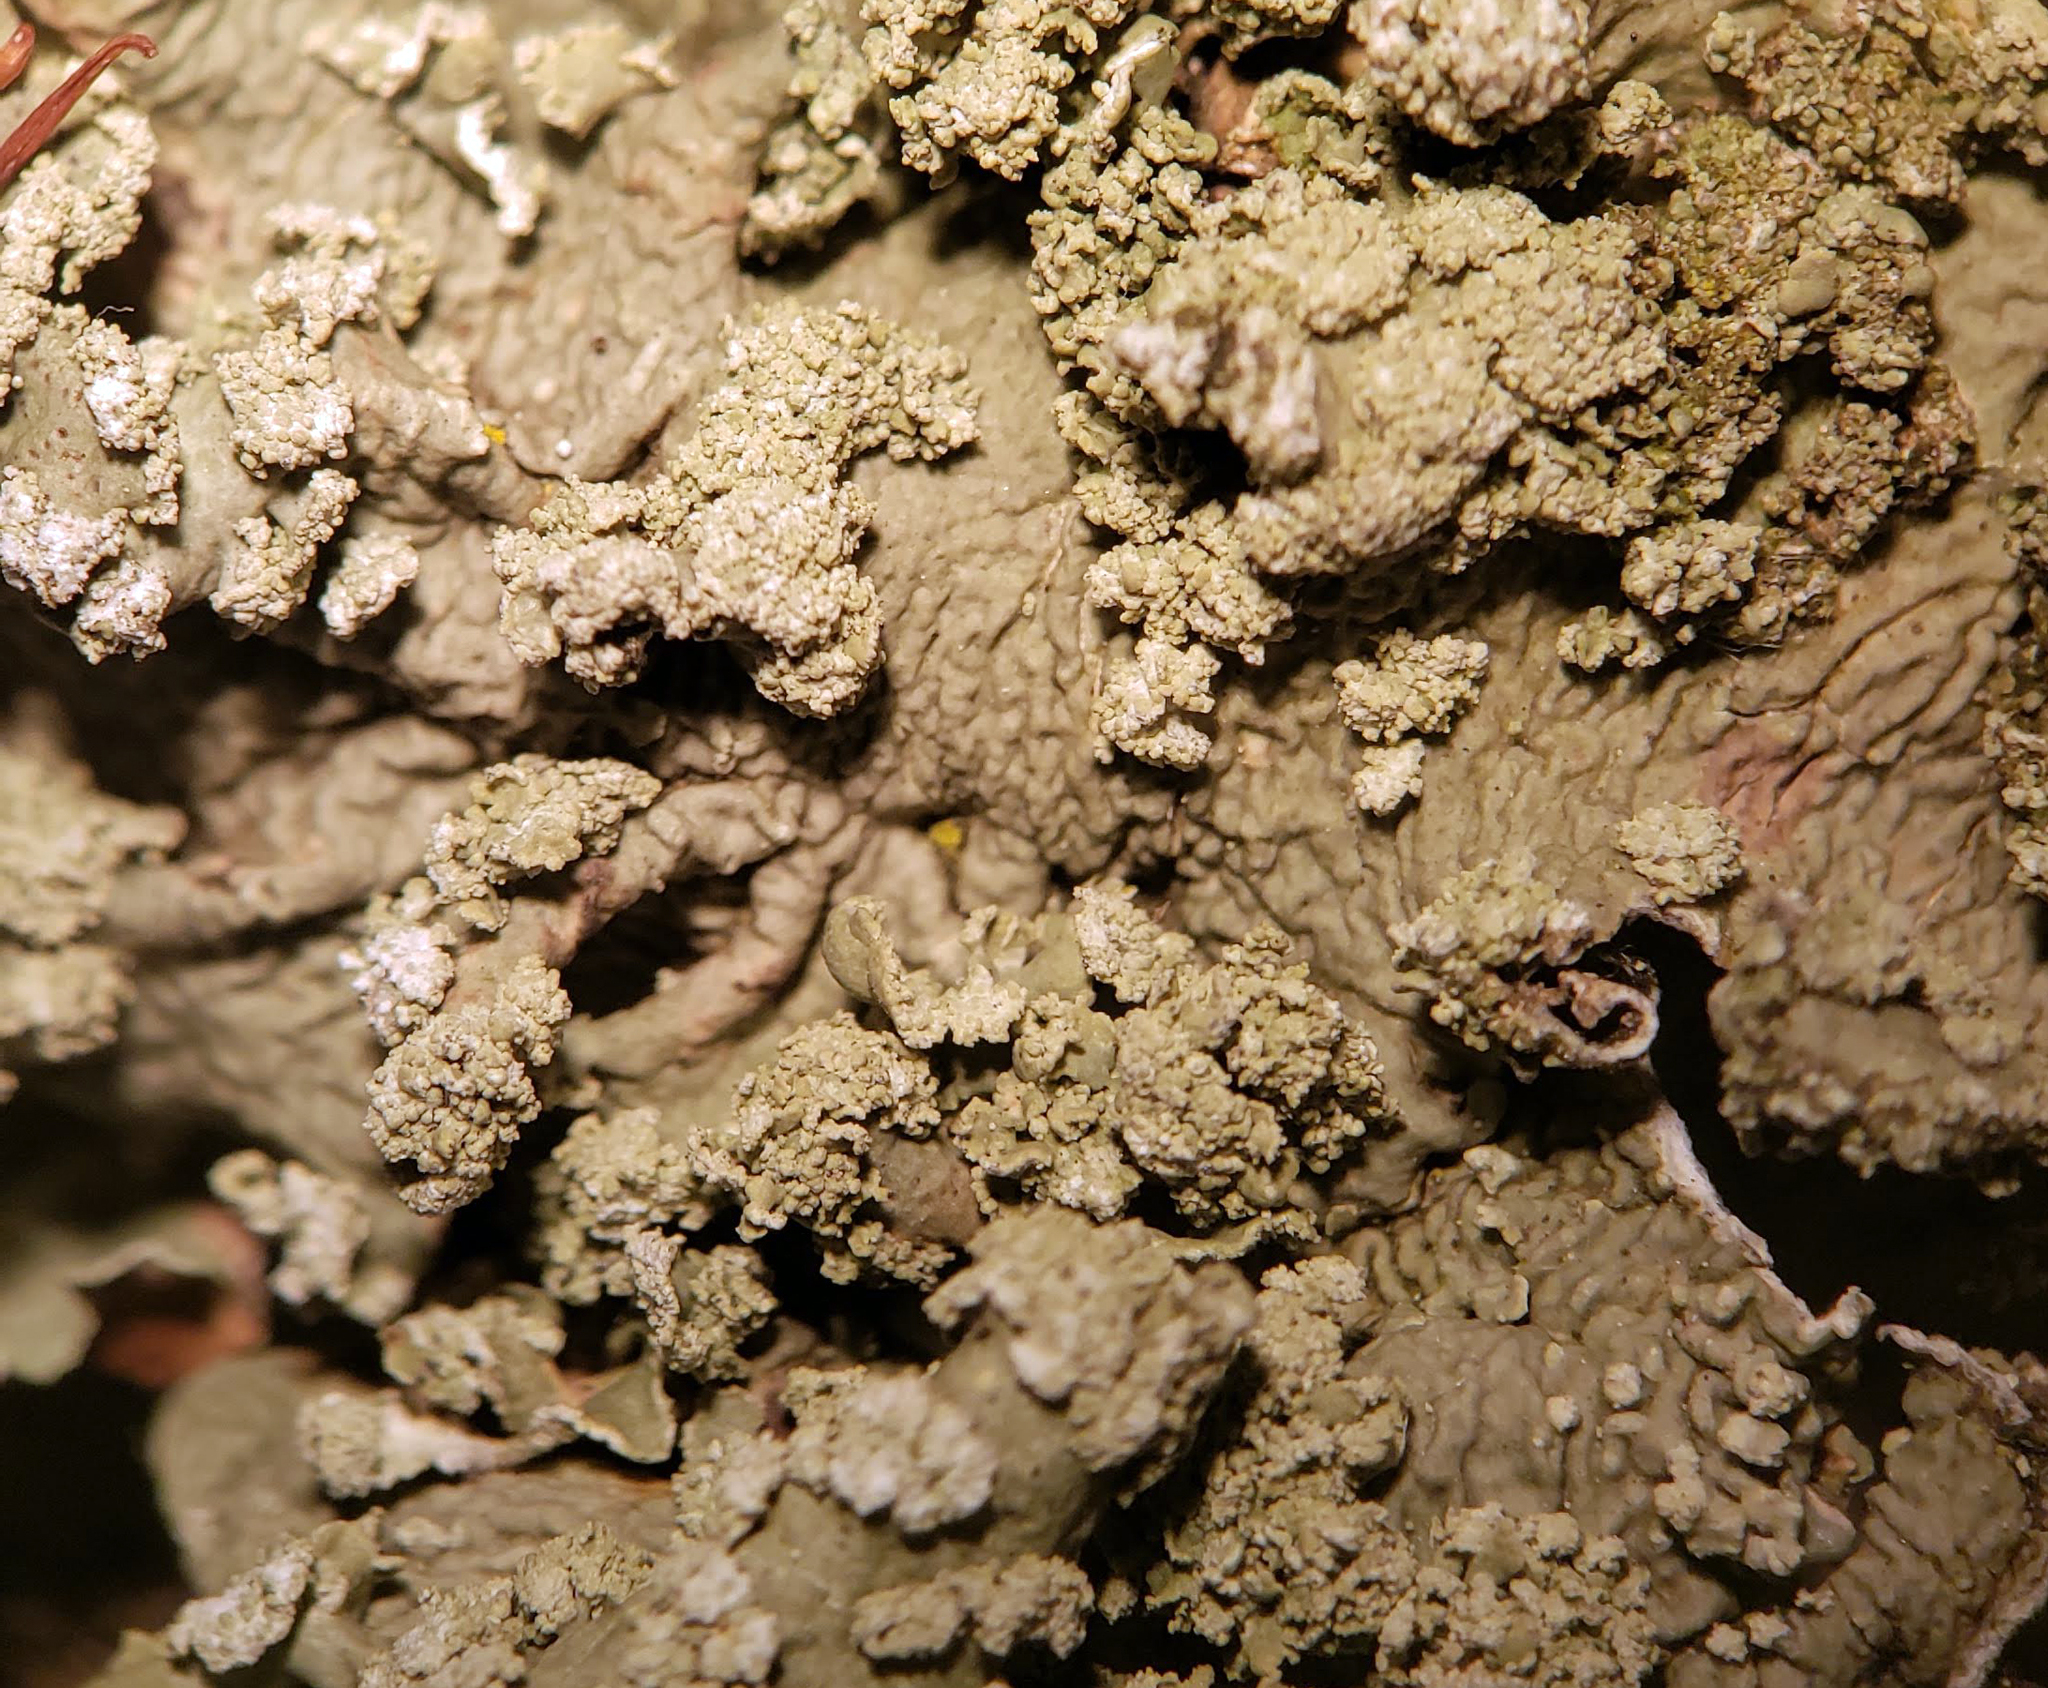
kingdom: Fungi
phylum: Ascomycota
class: Lecanoromycetes
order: Lecanorales
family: Parmeliaceae
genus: Flavopunctelia
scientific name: Flavopunctelia flaventior
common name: Speckled greenshield
